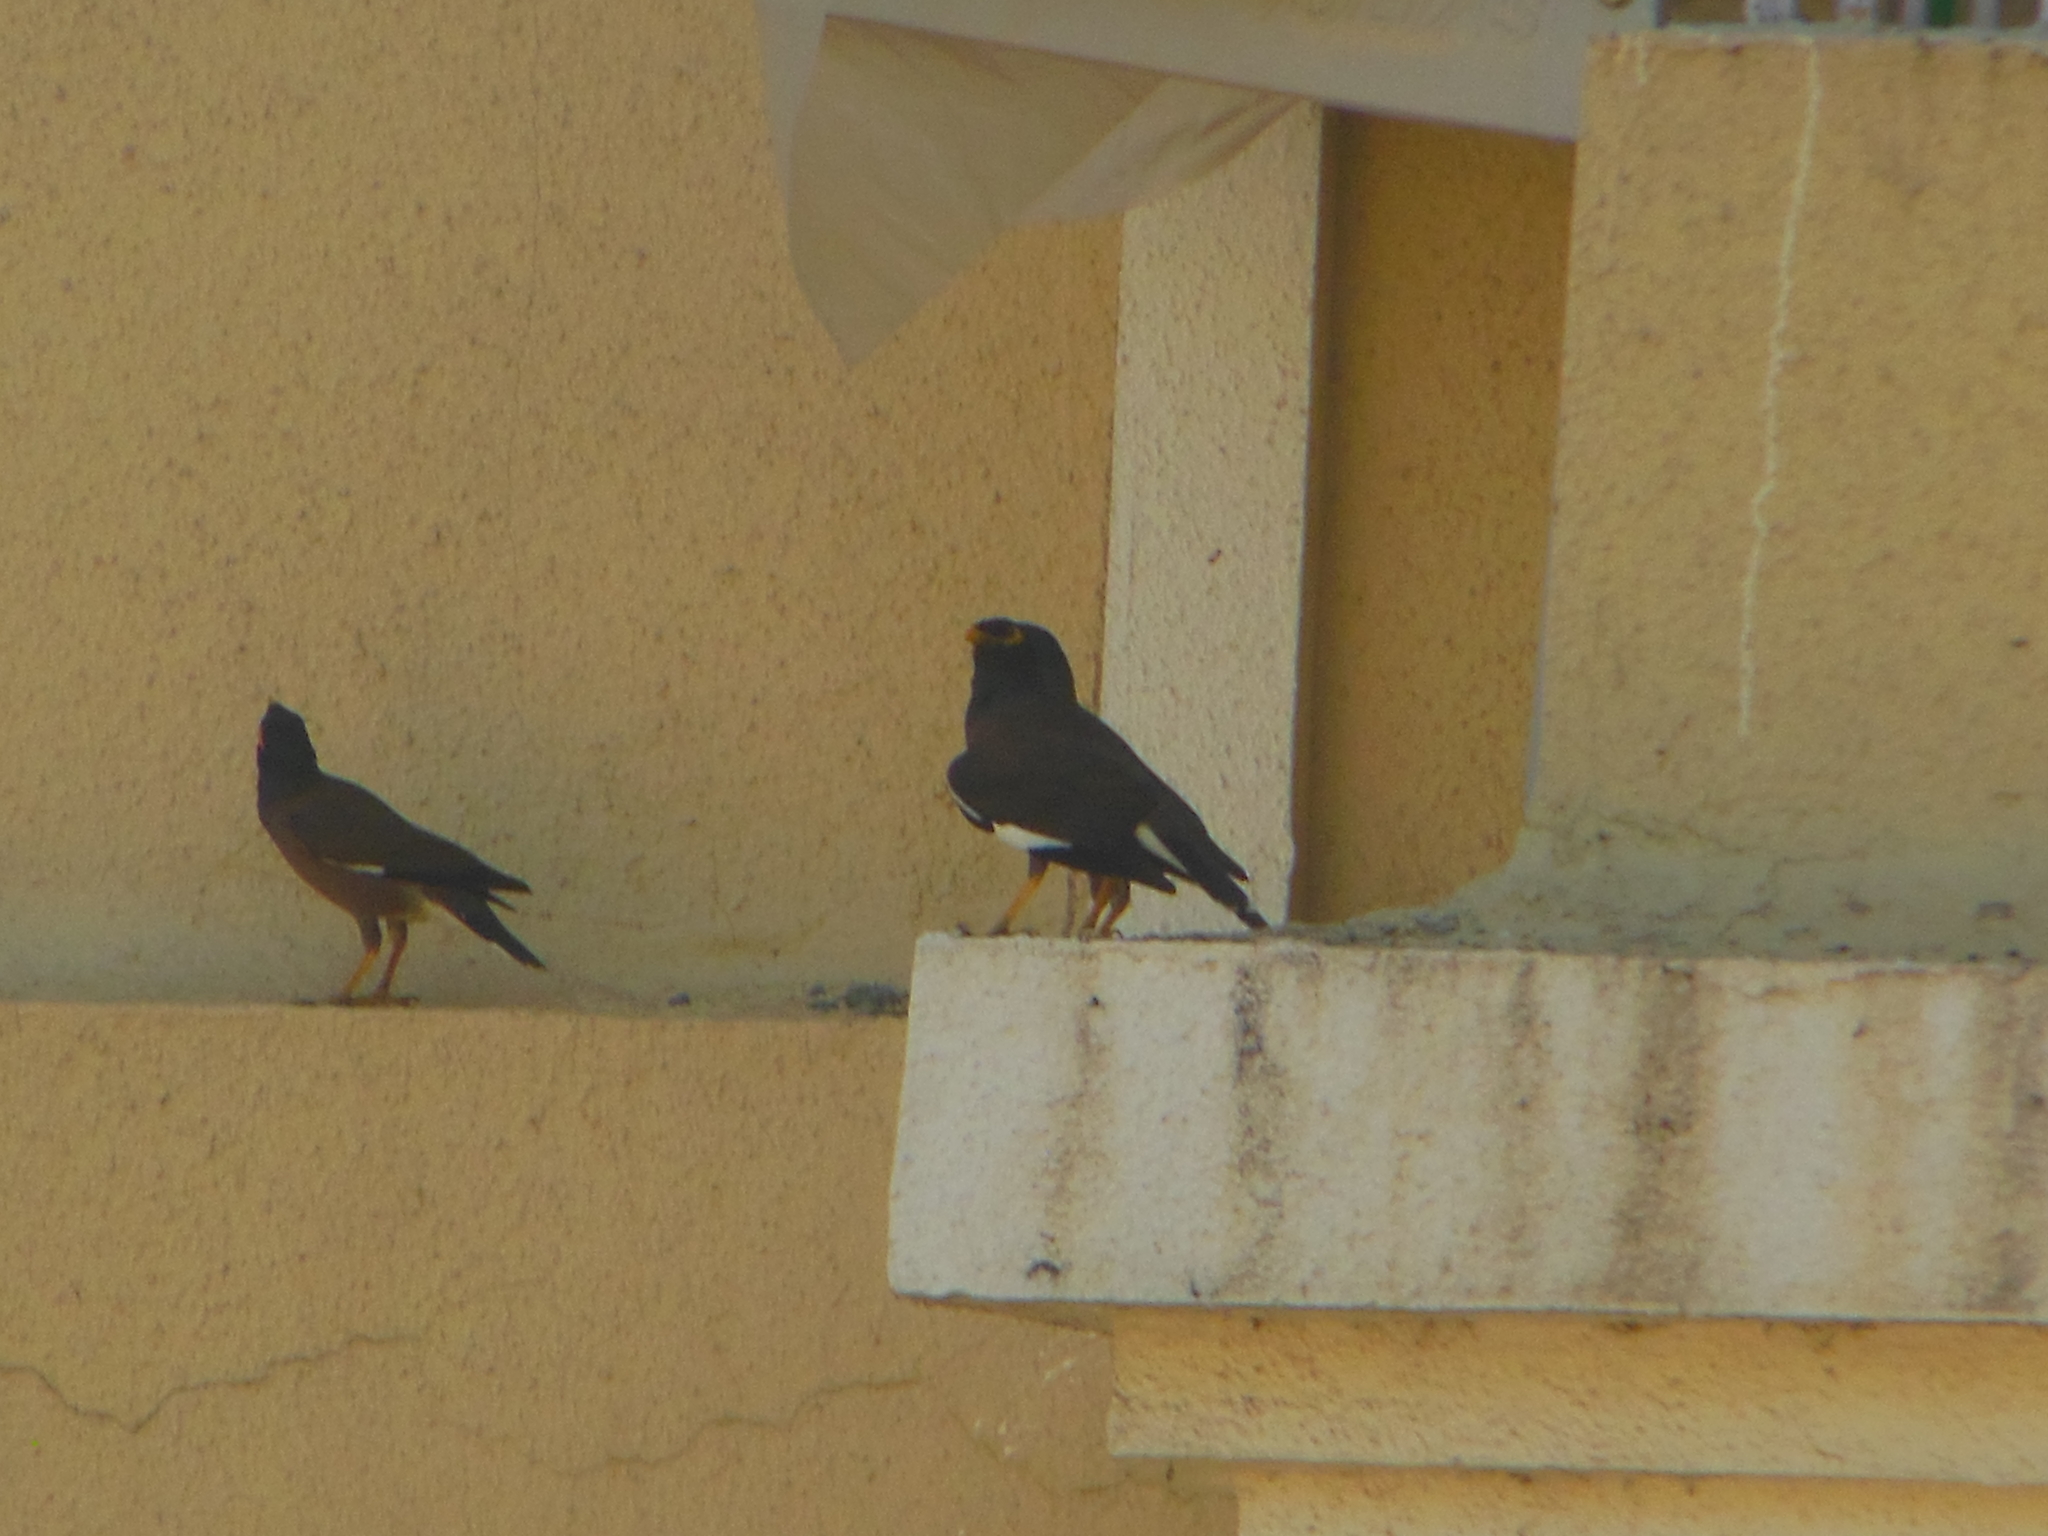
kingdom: Animalia
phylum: Chordata
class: Aves
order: Passeriformes
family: Sturnidae
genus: Acridotheres
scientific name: Acridotheres tristis
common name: Common myna
